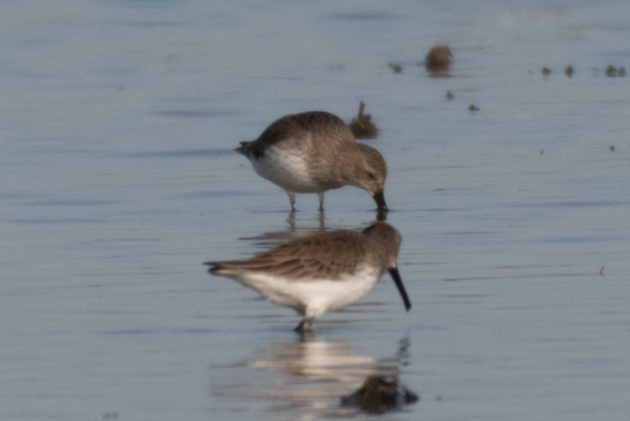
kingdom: Animalia
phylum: Chordata
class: Aves
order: Charadriiformes
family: Scolopacidae
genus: Calidris
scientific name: Calidris alpina
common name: Dunlin
